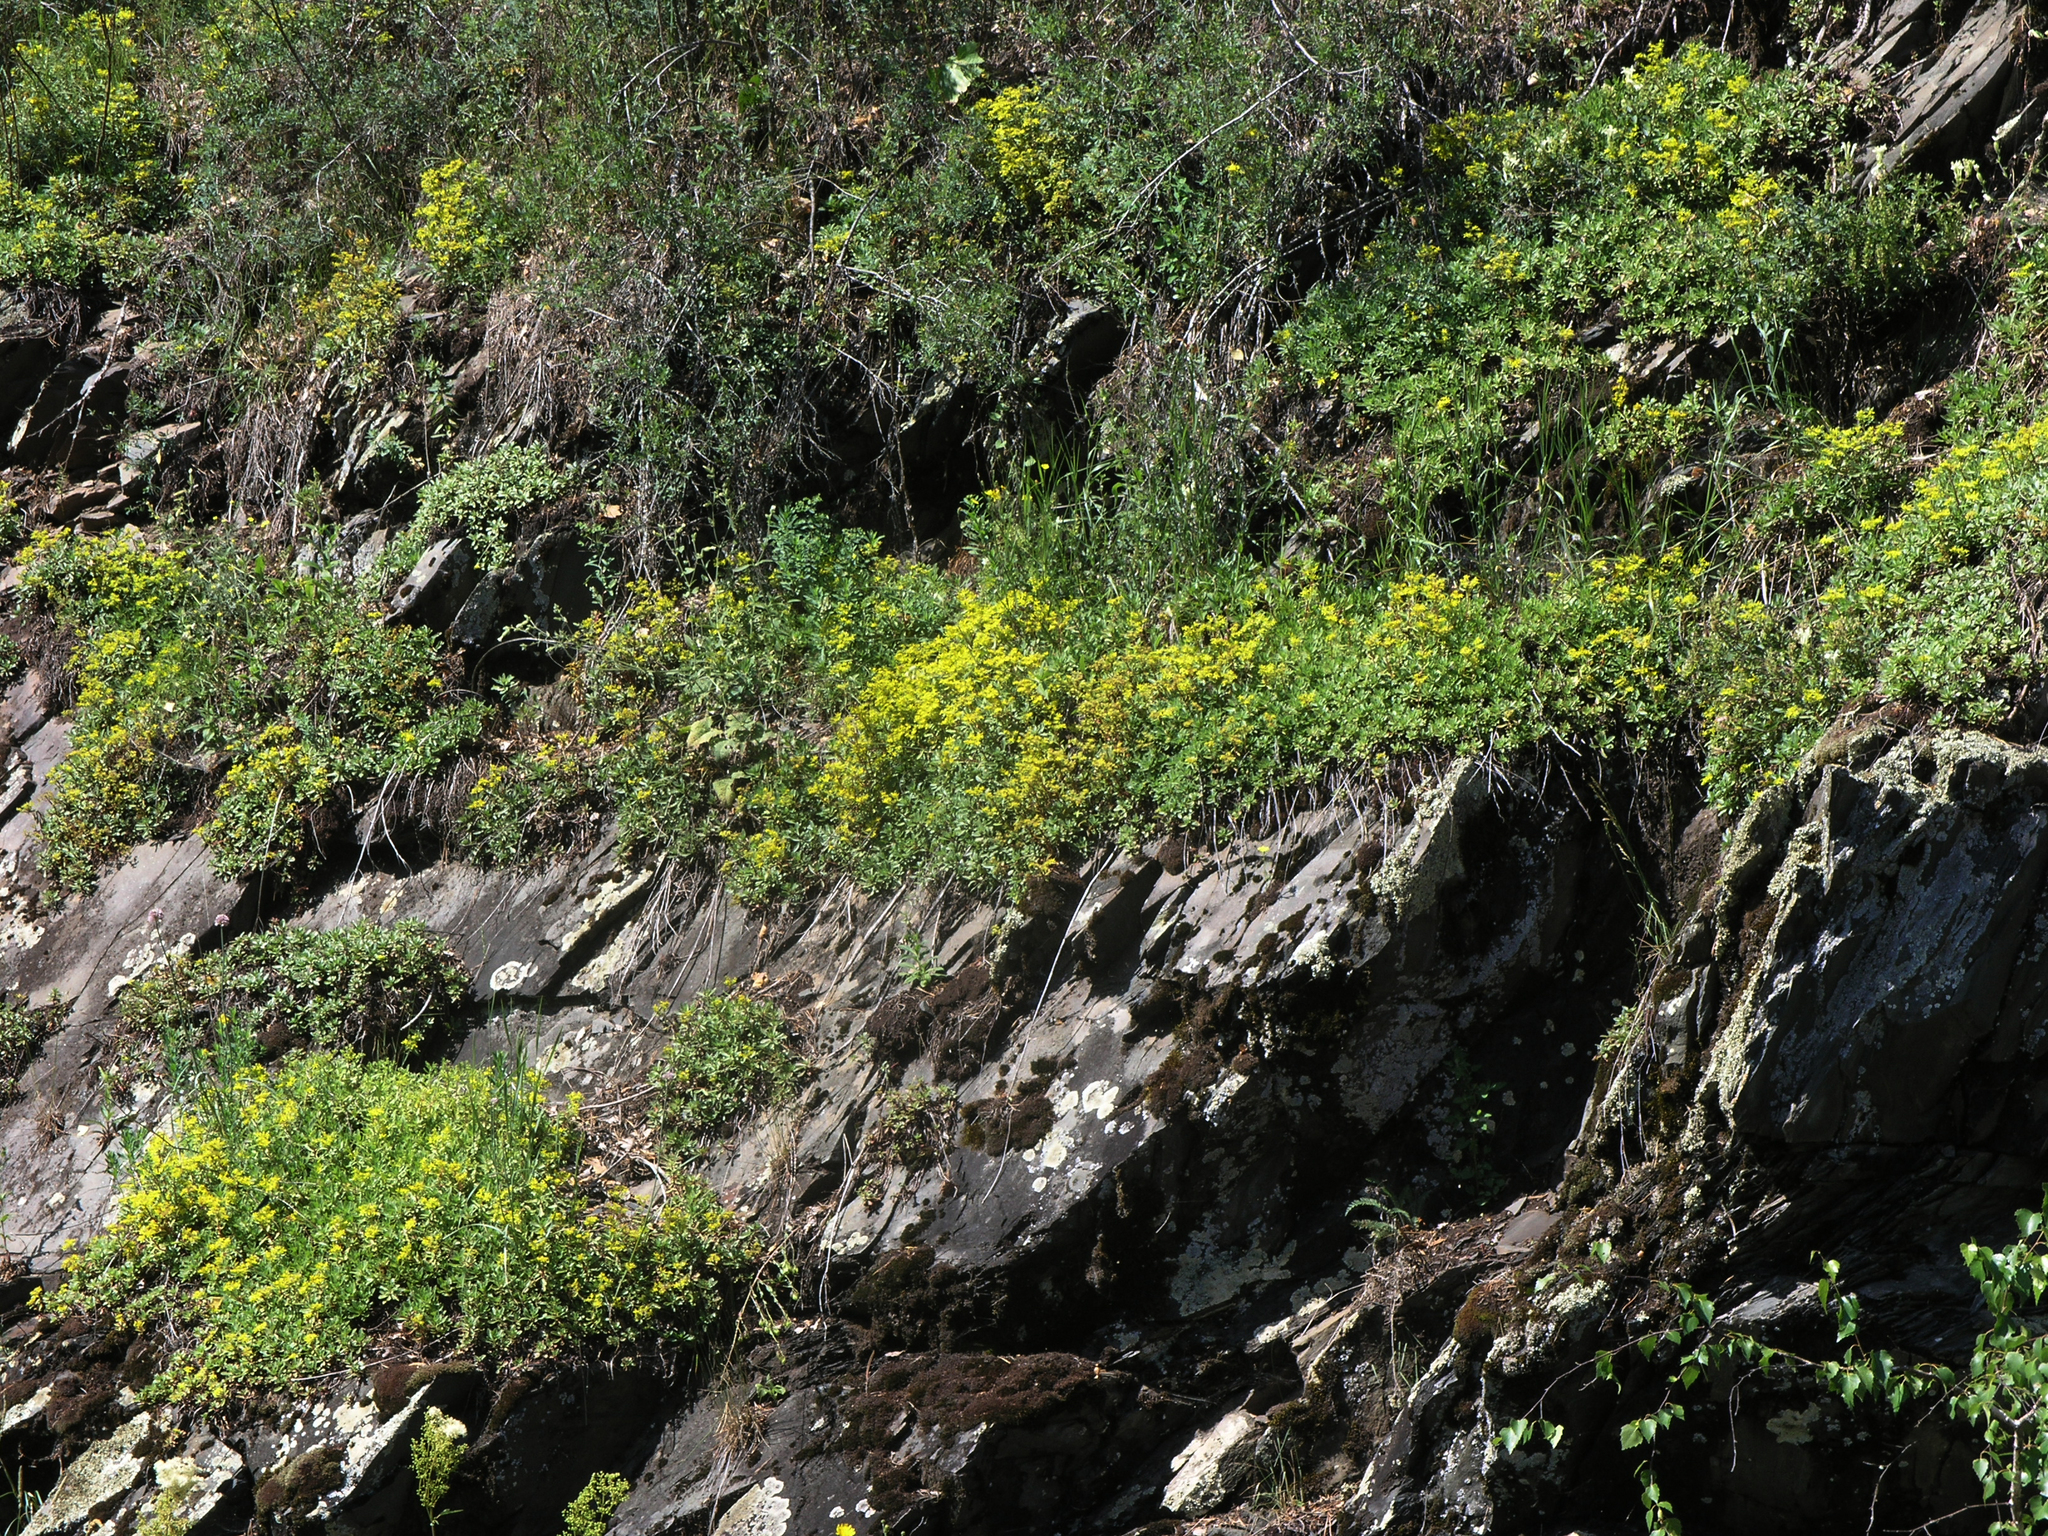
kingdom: Plantae
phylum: Tracheophyta
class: Magnoliopsida
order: Saxifragales
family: Crassulaceae
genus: Phedimus
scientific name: Phedimus hybridus
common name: Hybrid stonecrop
